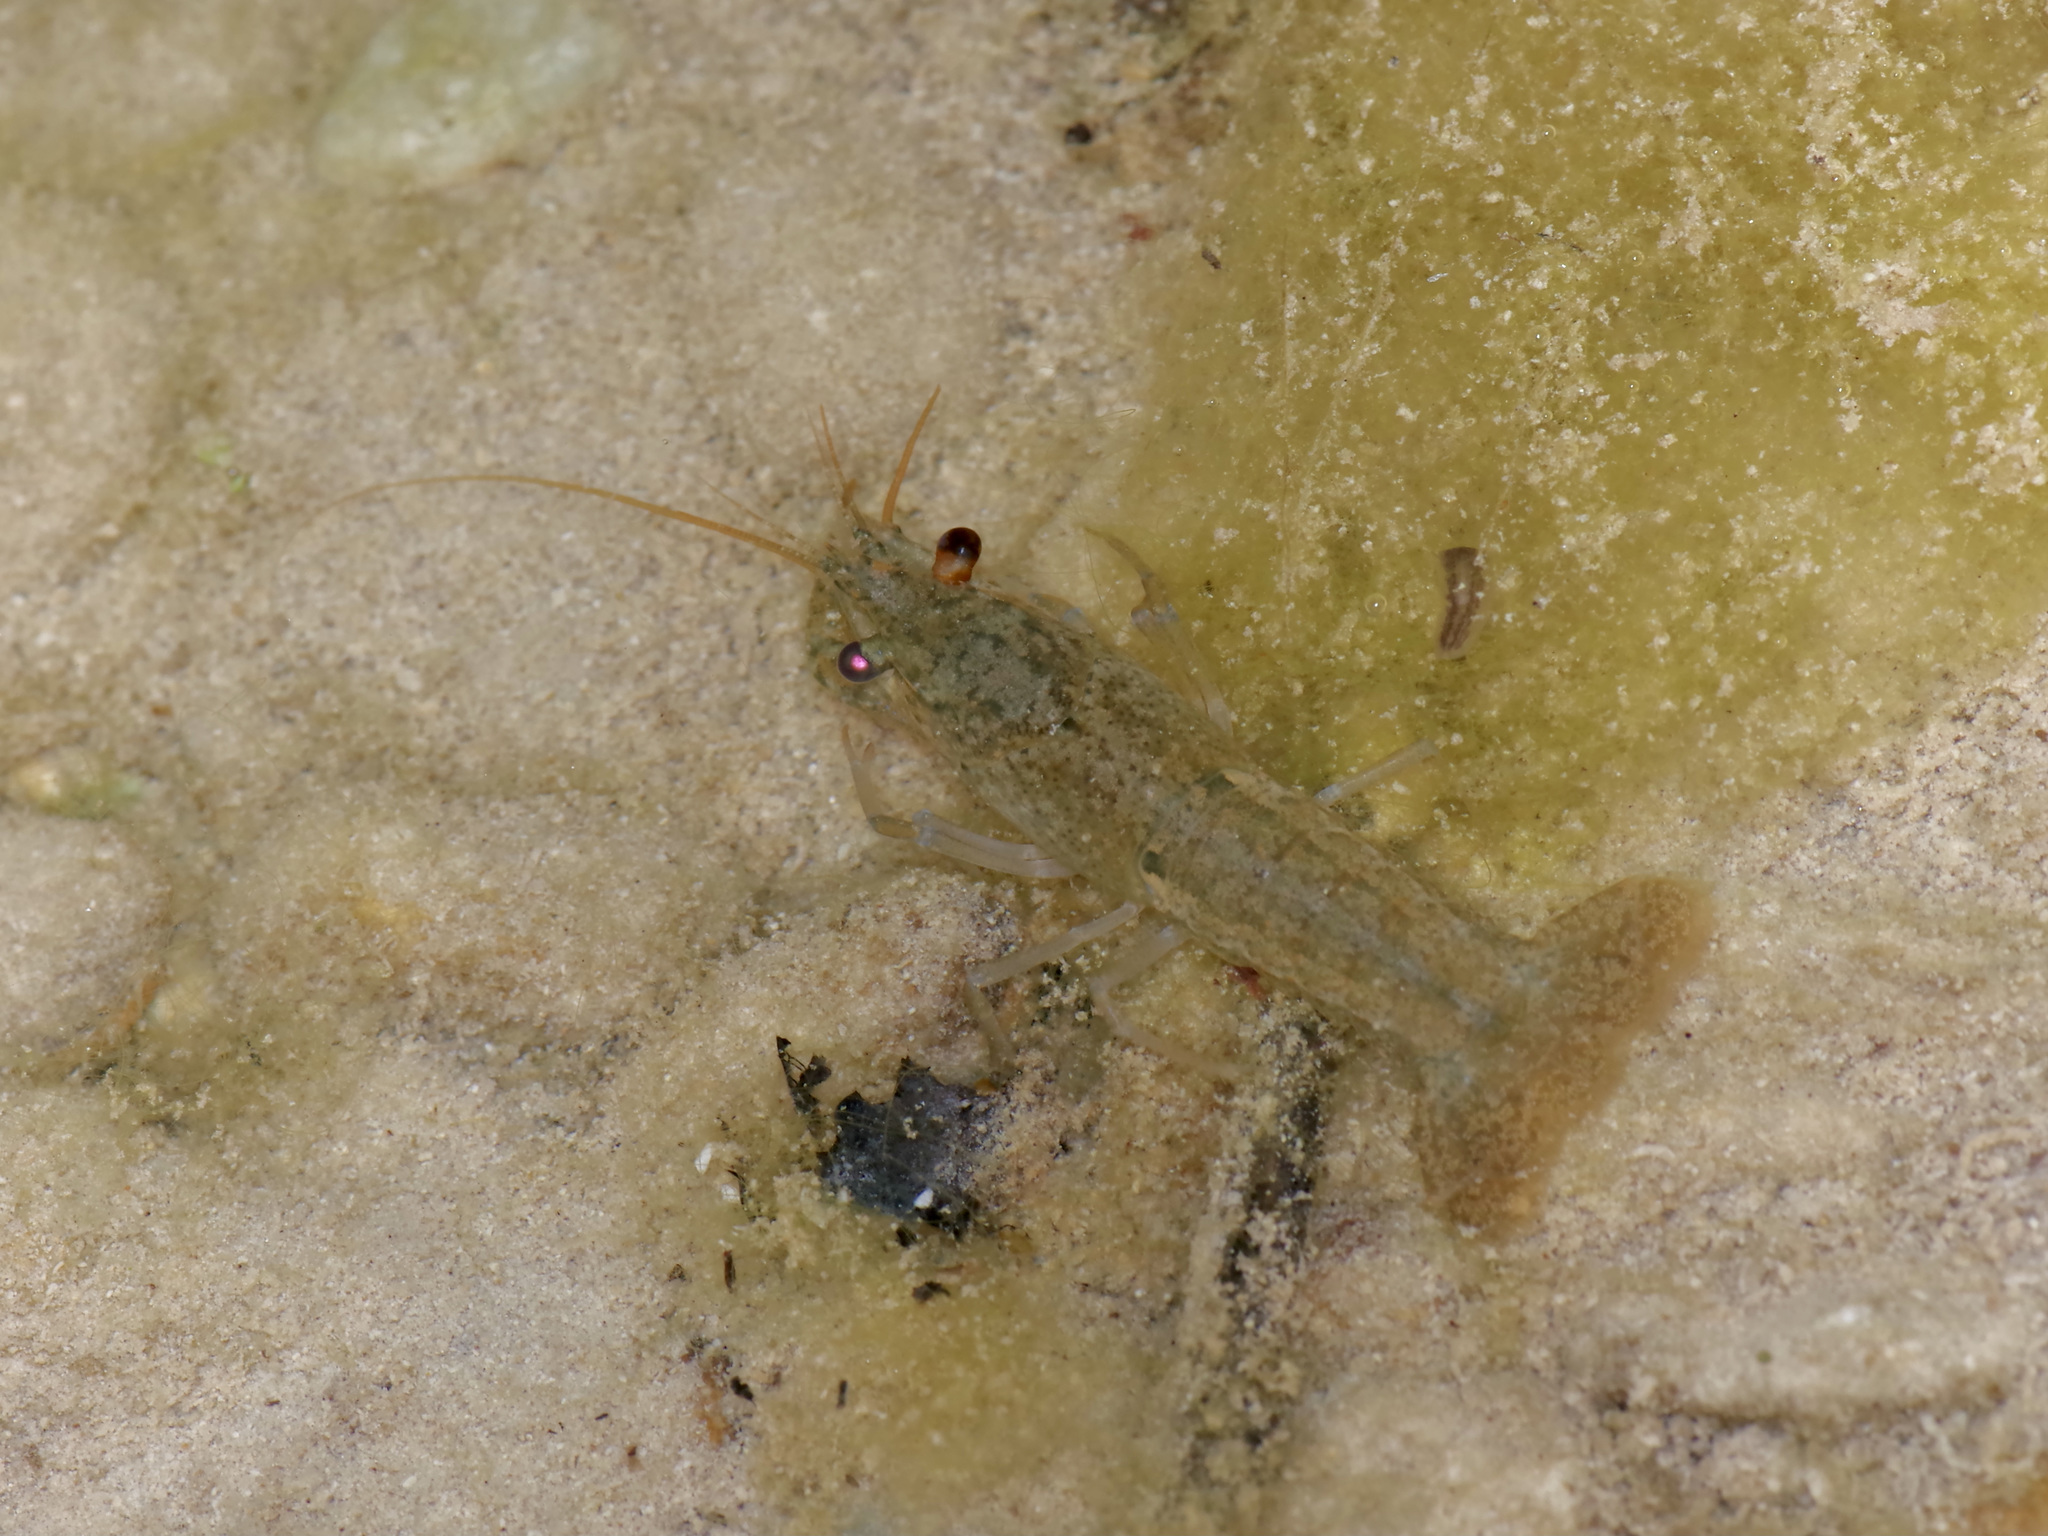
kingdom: Animalia
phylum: Arthropoda
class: Malacostraca
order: Decapoda
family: Cambaridae
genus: Procambarus
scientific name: Procambarus clarkii
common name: Red swamp crayfish
